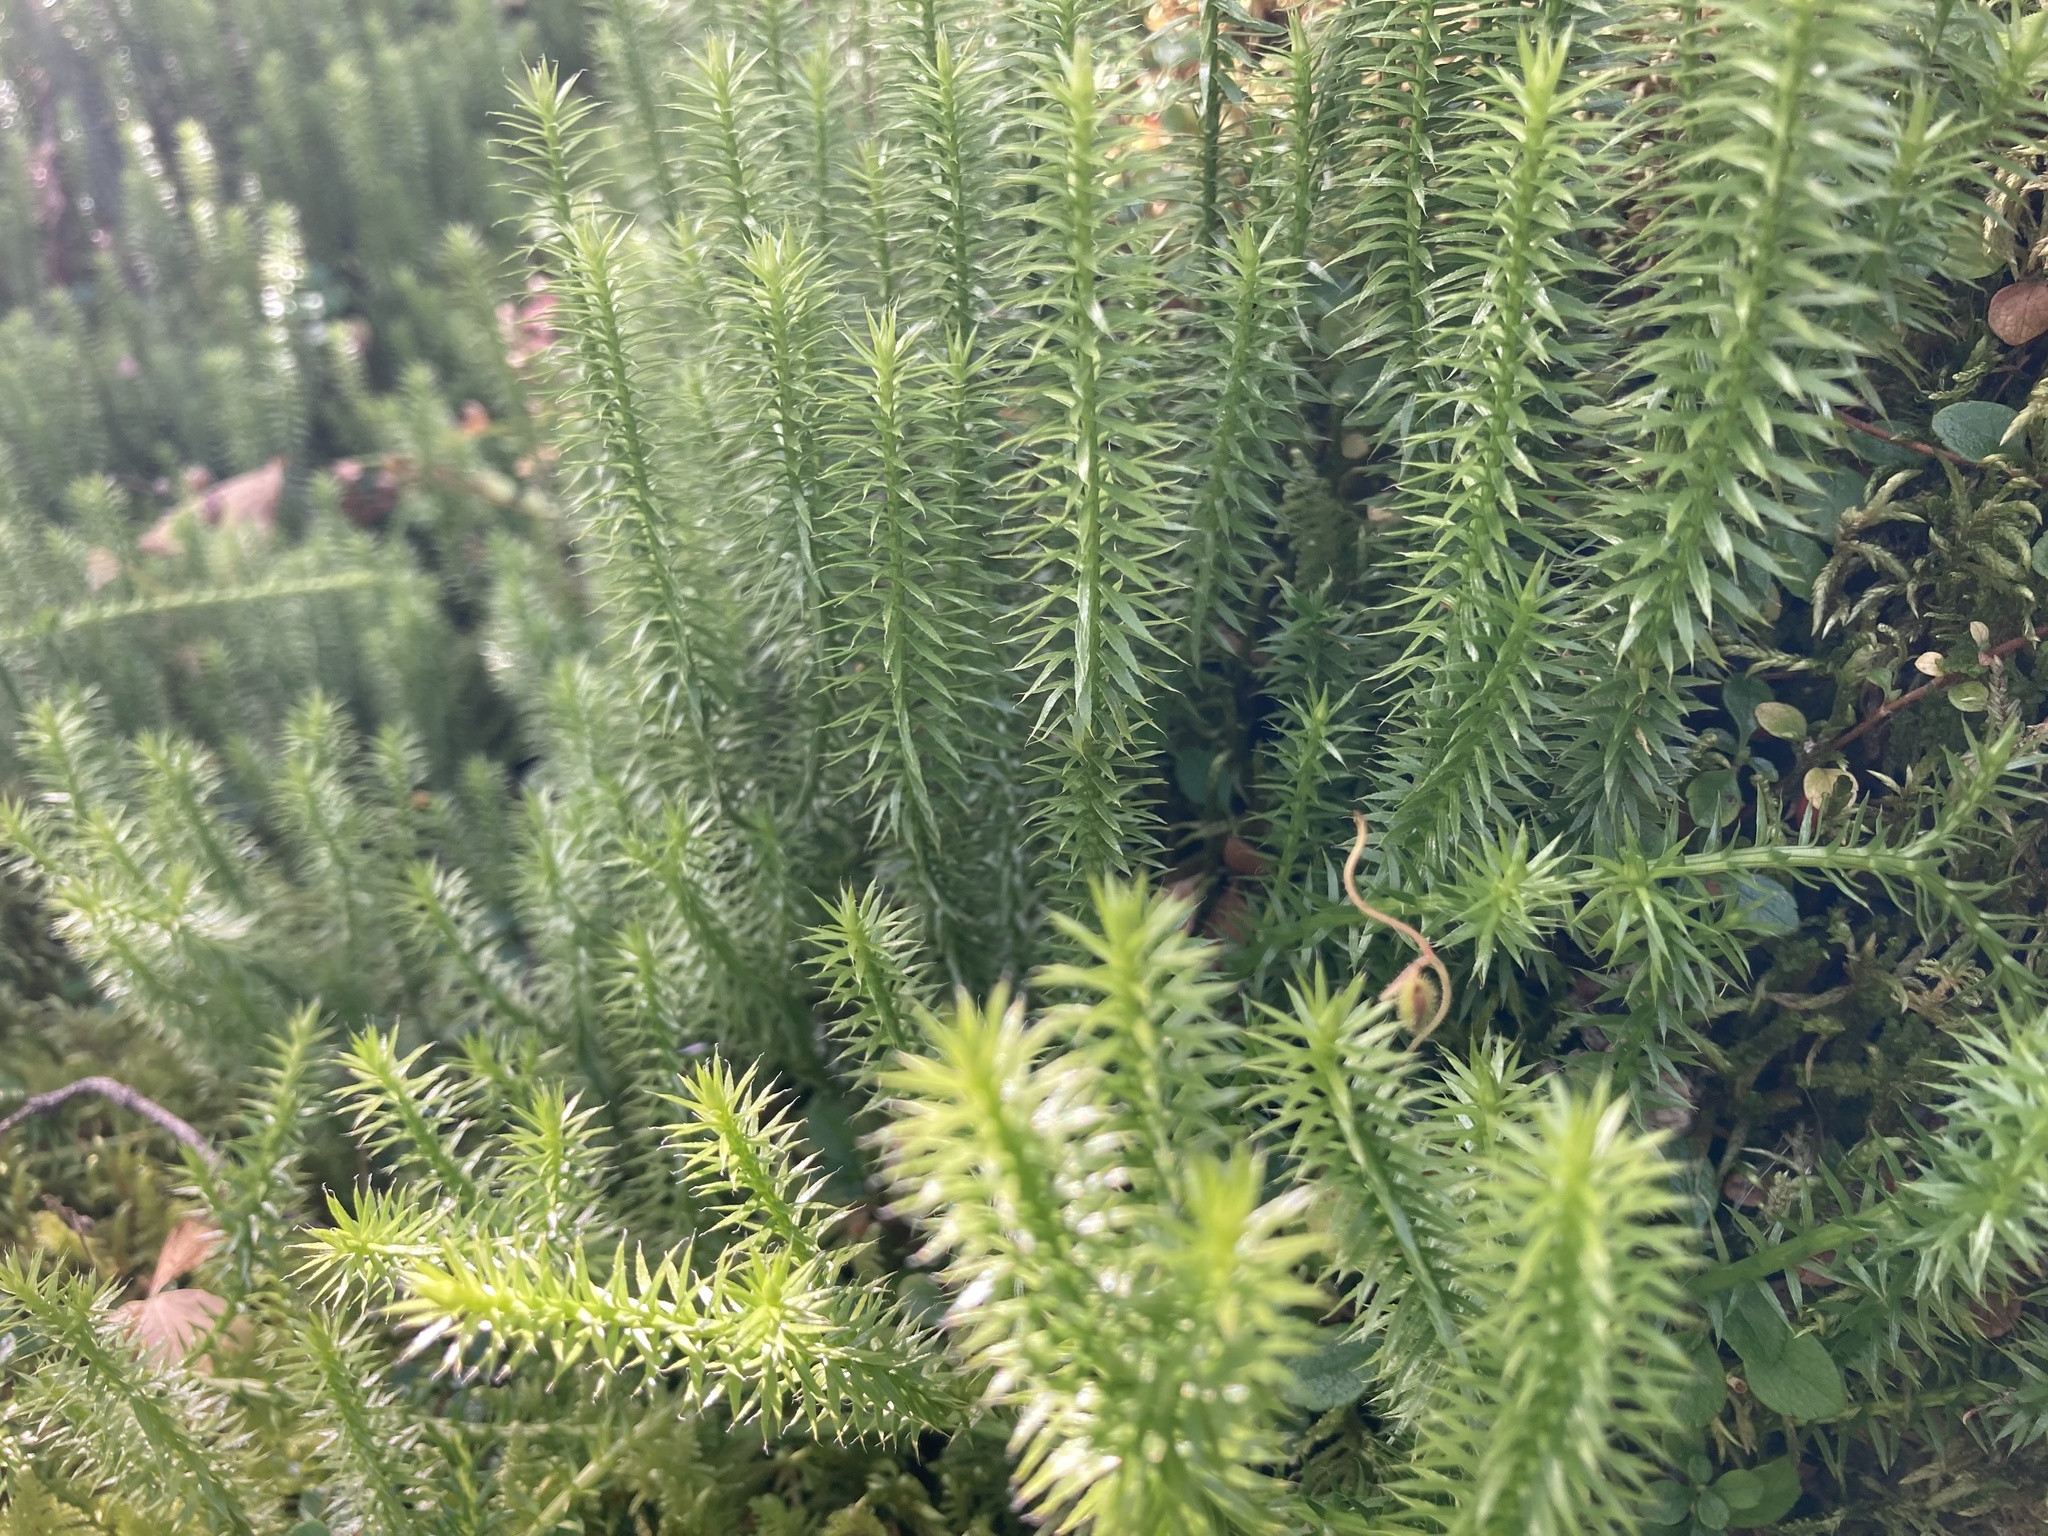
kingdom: Plantae
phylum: Tracheophyta
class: Lycopodiopsida
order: Lycopodiales
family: Lycopodiaceae
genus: Spinulum
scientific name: Spinulum annotinum
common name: Interrupted club-moss
